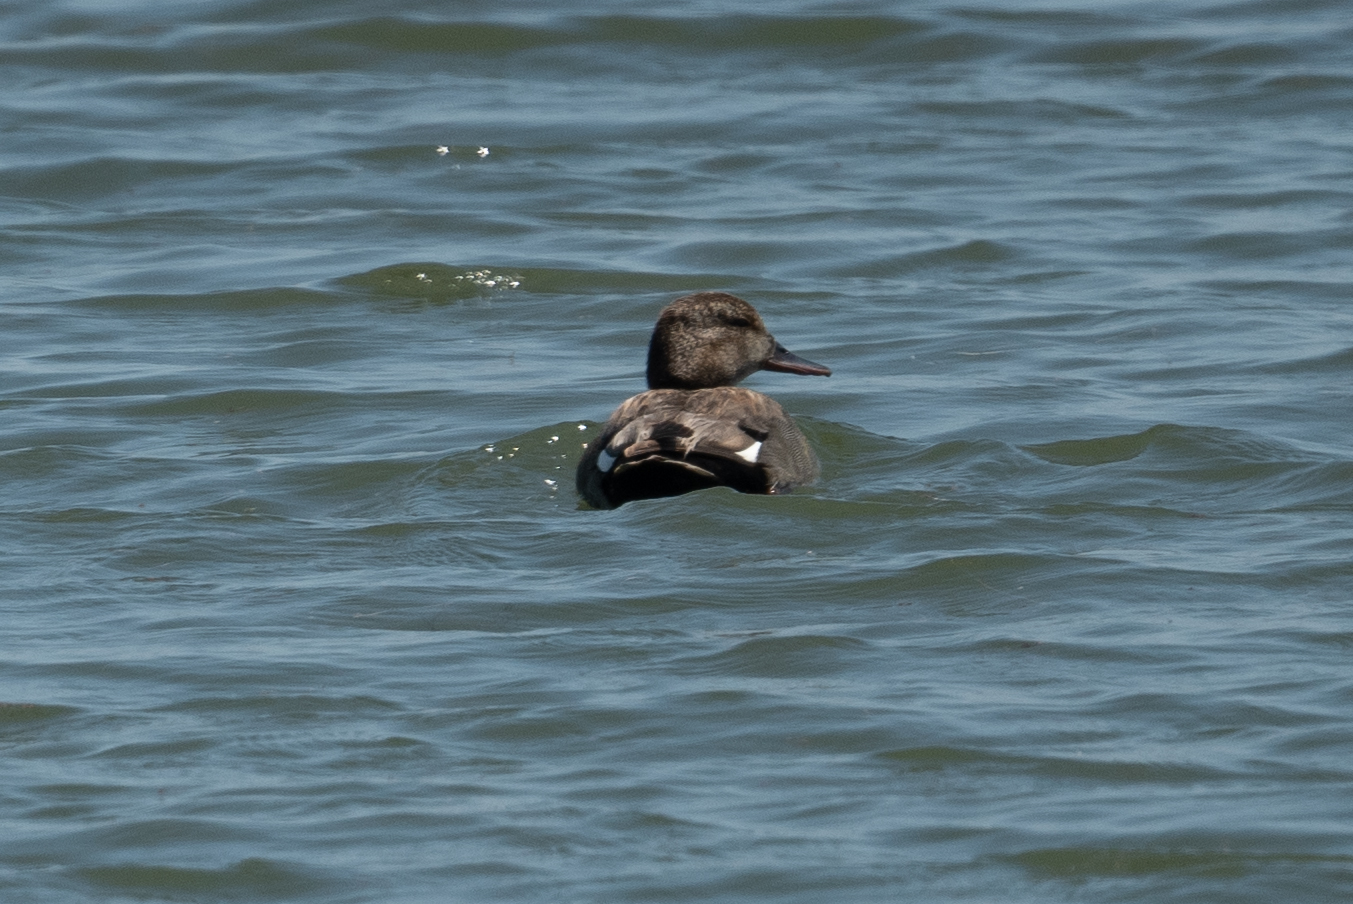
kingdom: Animalia
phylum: Chordata
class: Aves
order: Anseriformes
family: Anatidae
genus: Mareca
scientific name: Mareca strepera
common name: Gadwall
